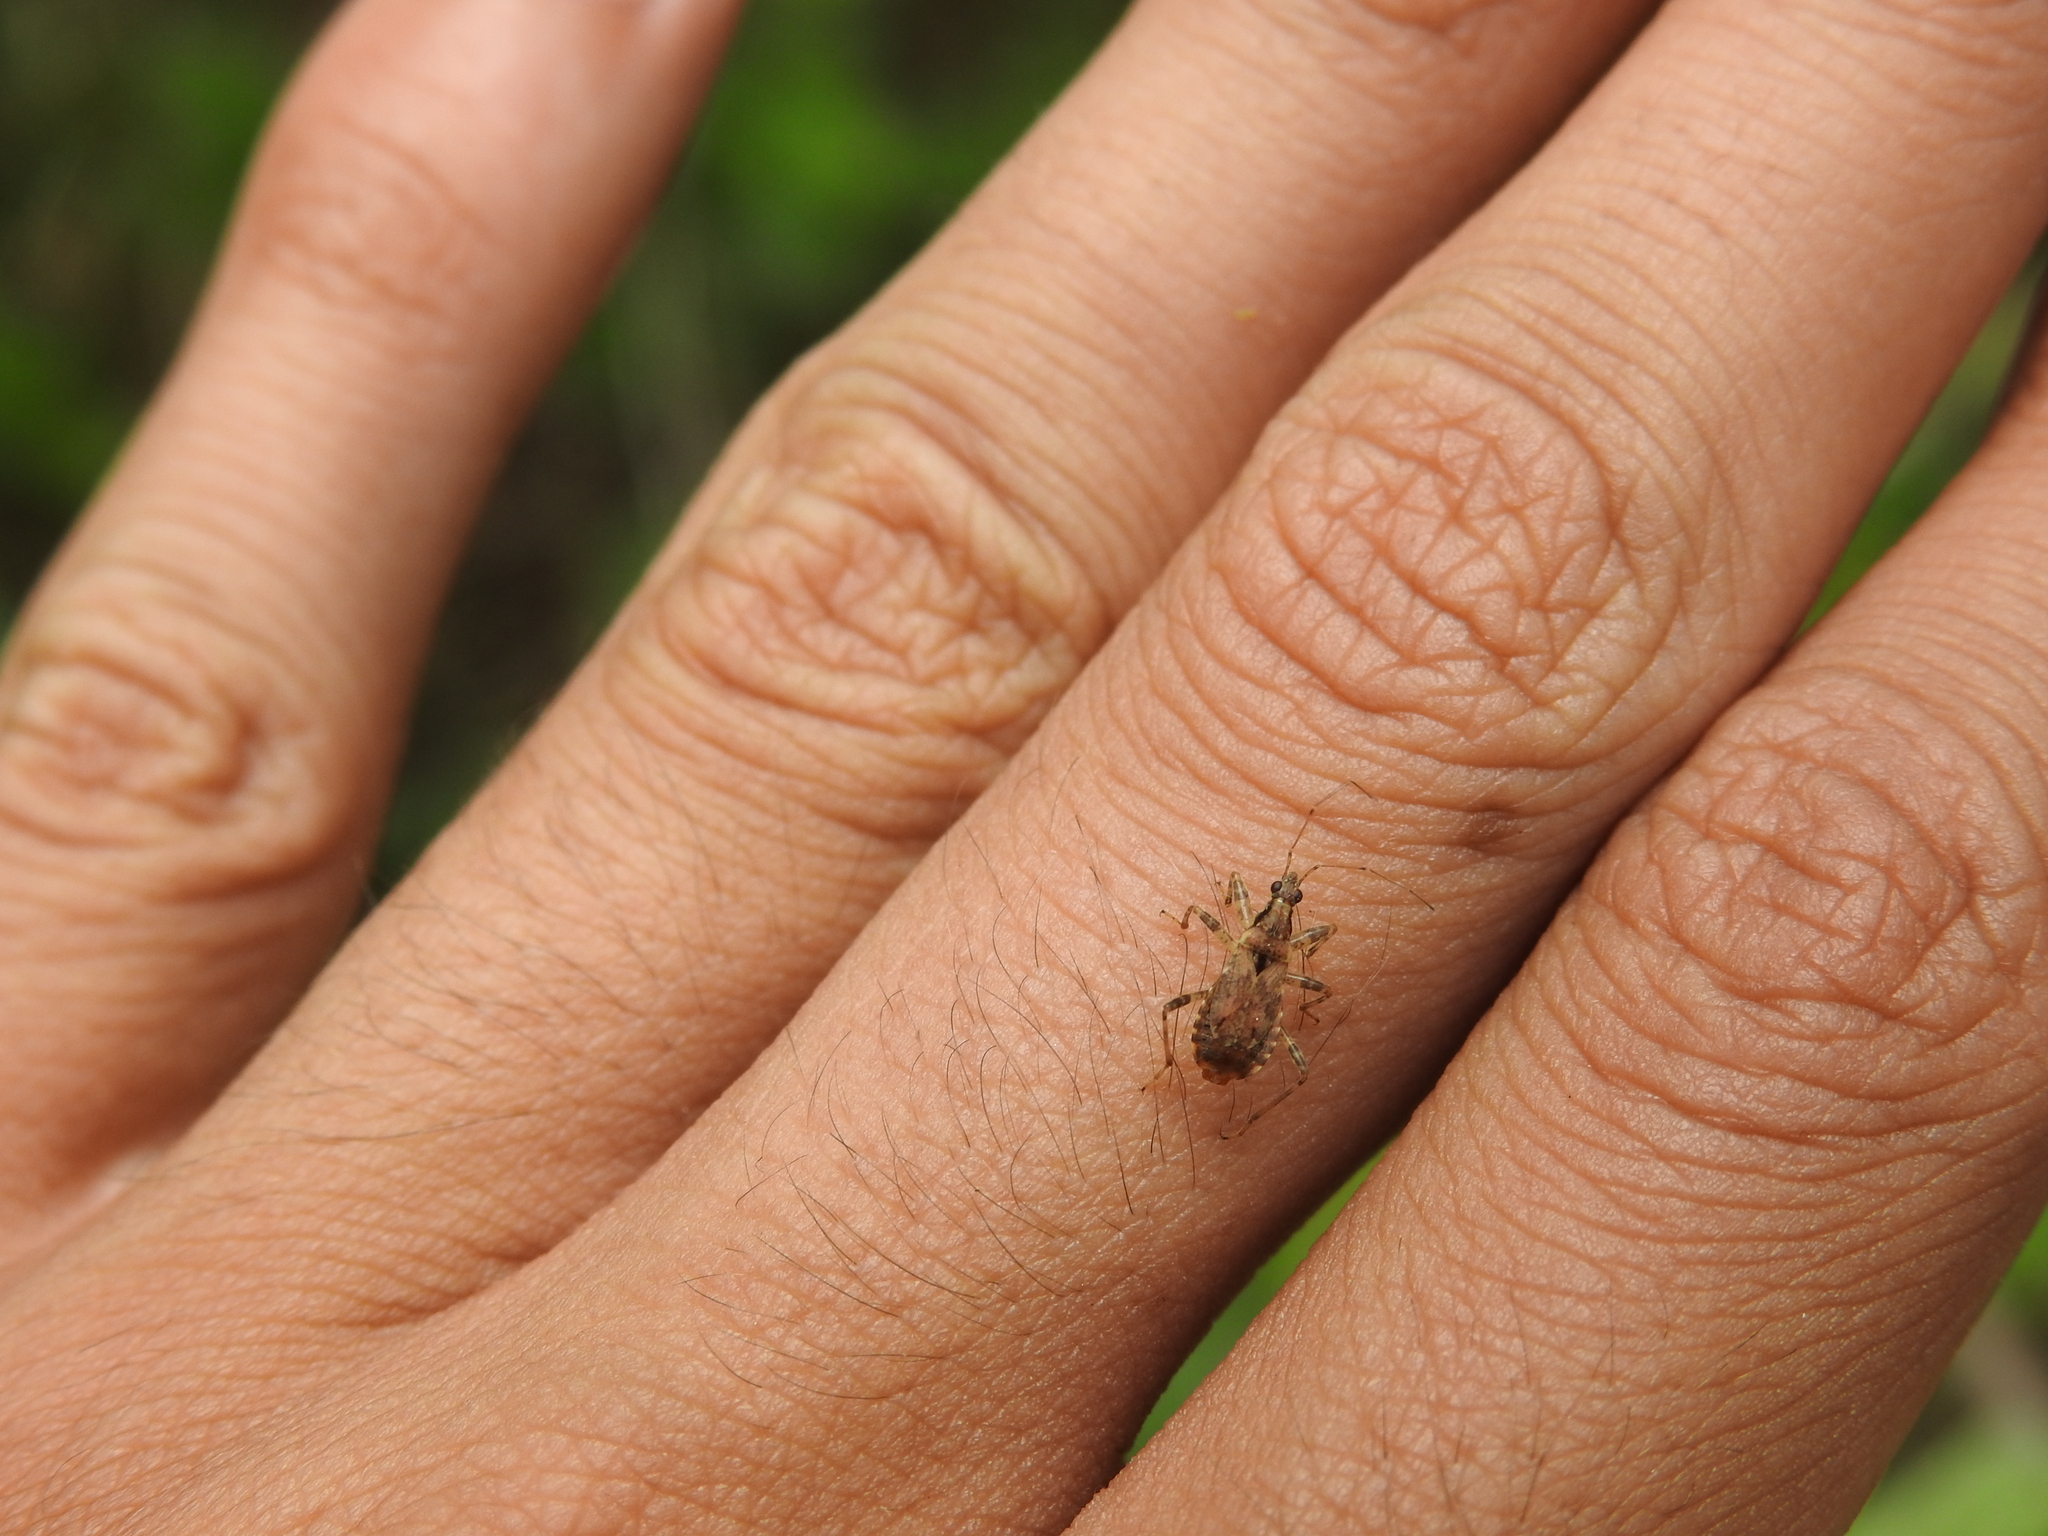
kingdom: Animalia
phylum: Arthropoda
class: Insecta
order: Hemiptera
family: Nabidae
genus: Himacerus
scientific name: Himacerus mirmicoides
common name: Ant damsel bug
